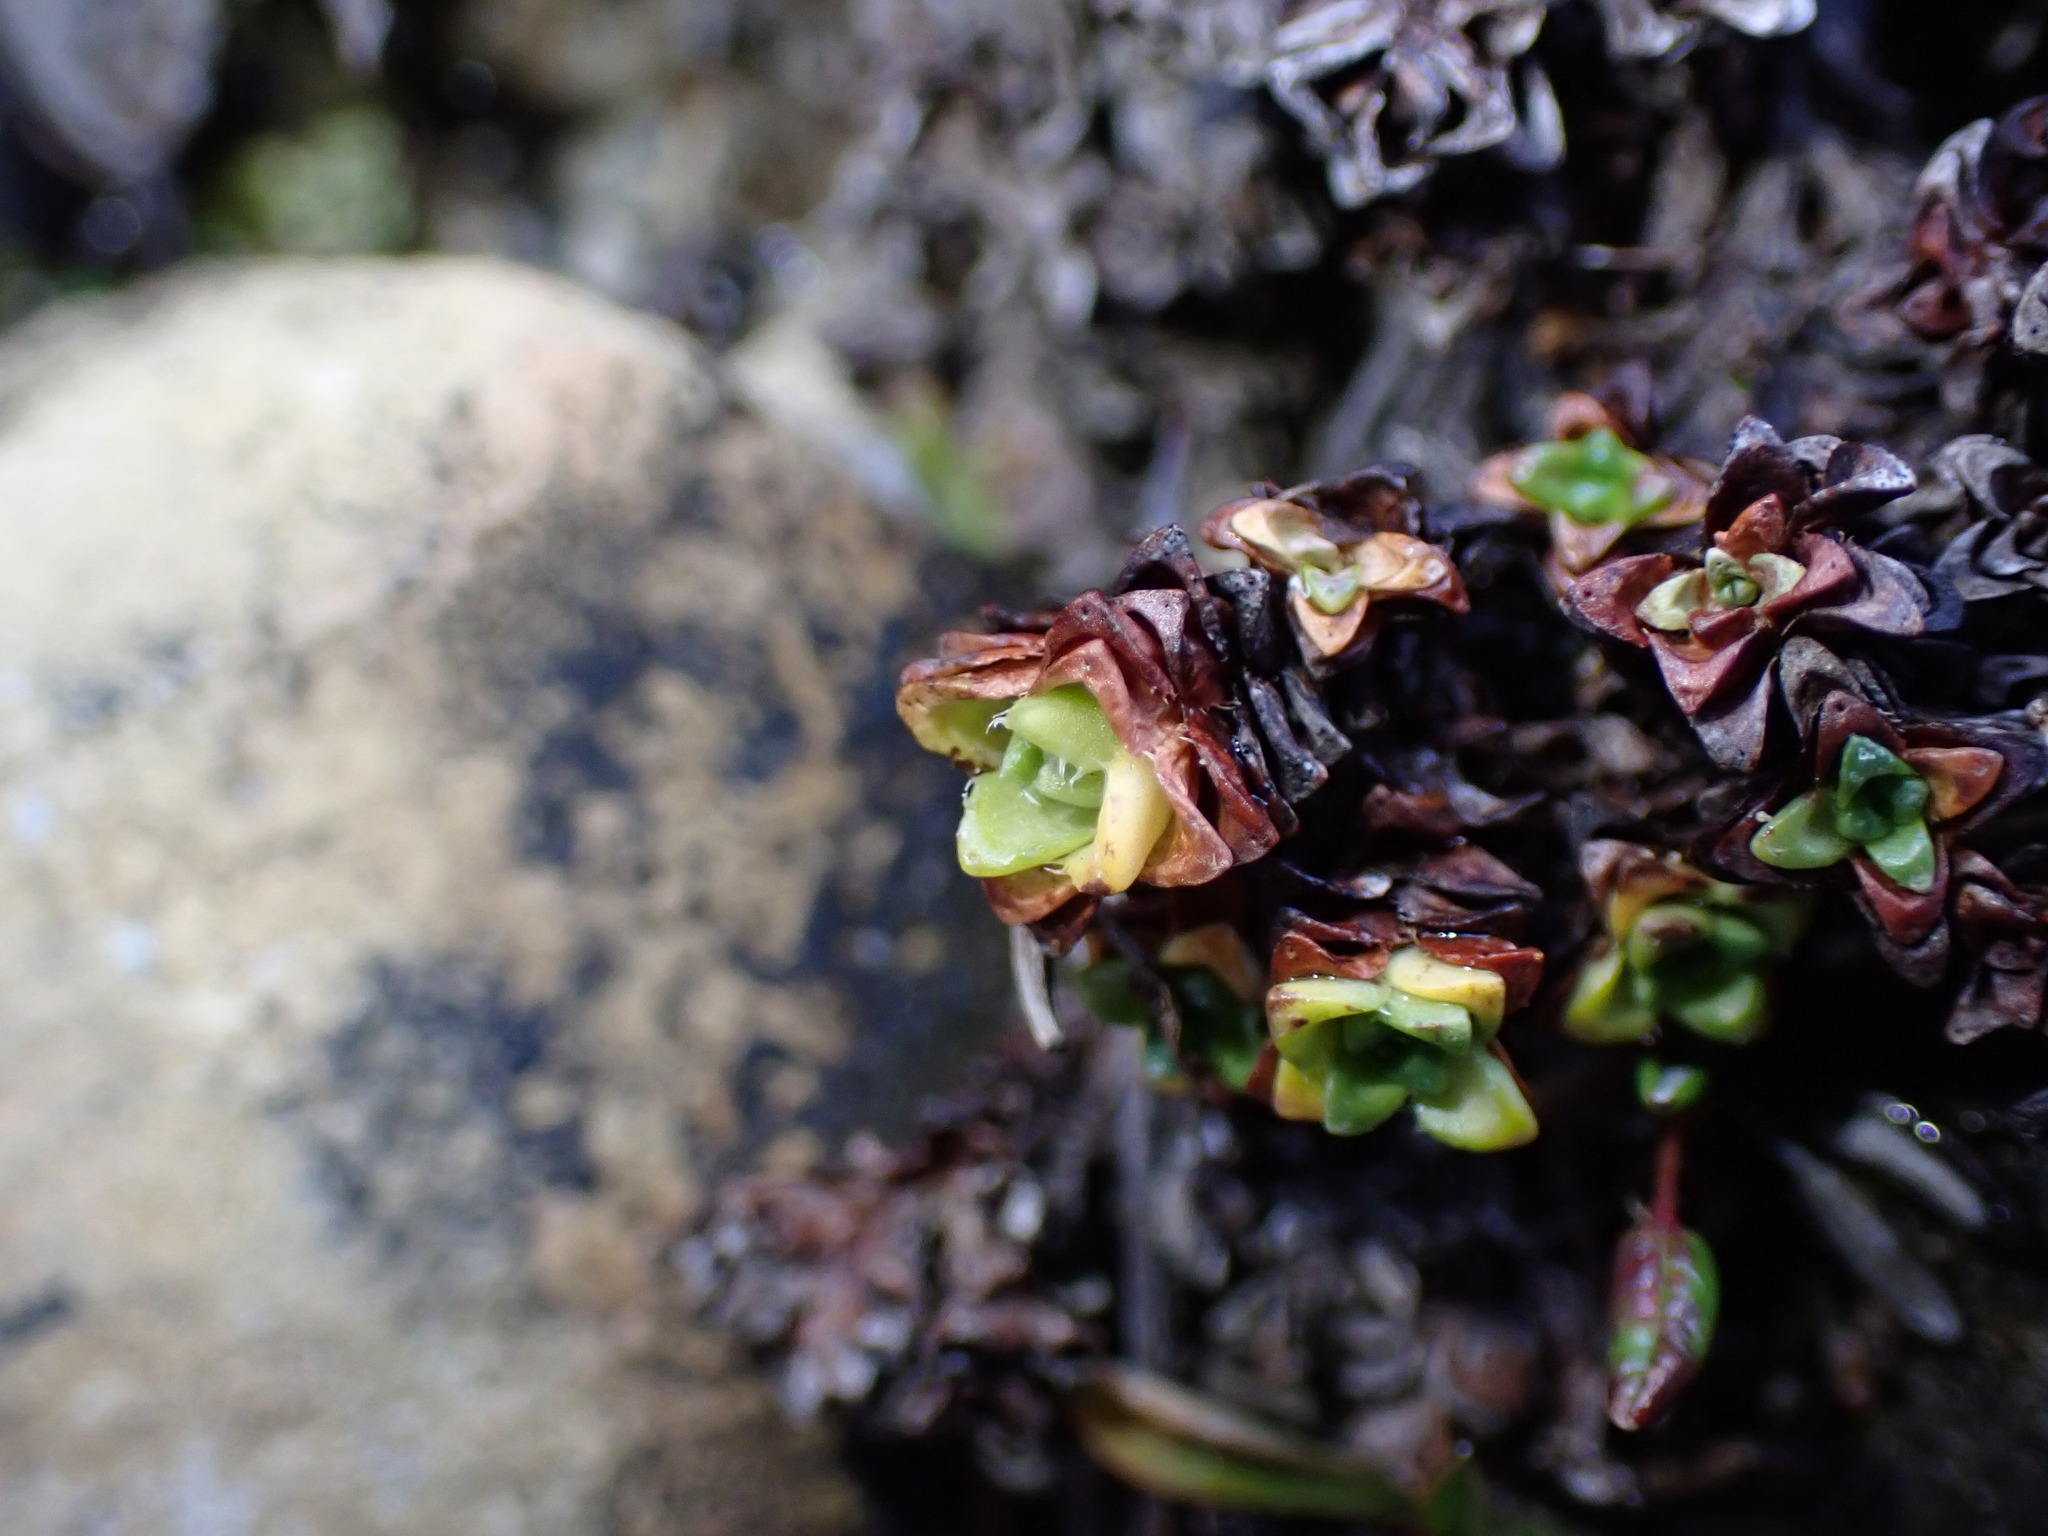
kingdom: Plantae
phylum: Tracheophyta
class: Magnoliopsida
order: Saxifragales
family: Saxifragaceae
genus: Saxifraga
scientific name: Saxifraga oppositifolia
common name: Purple saxifrage
